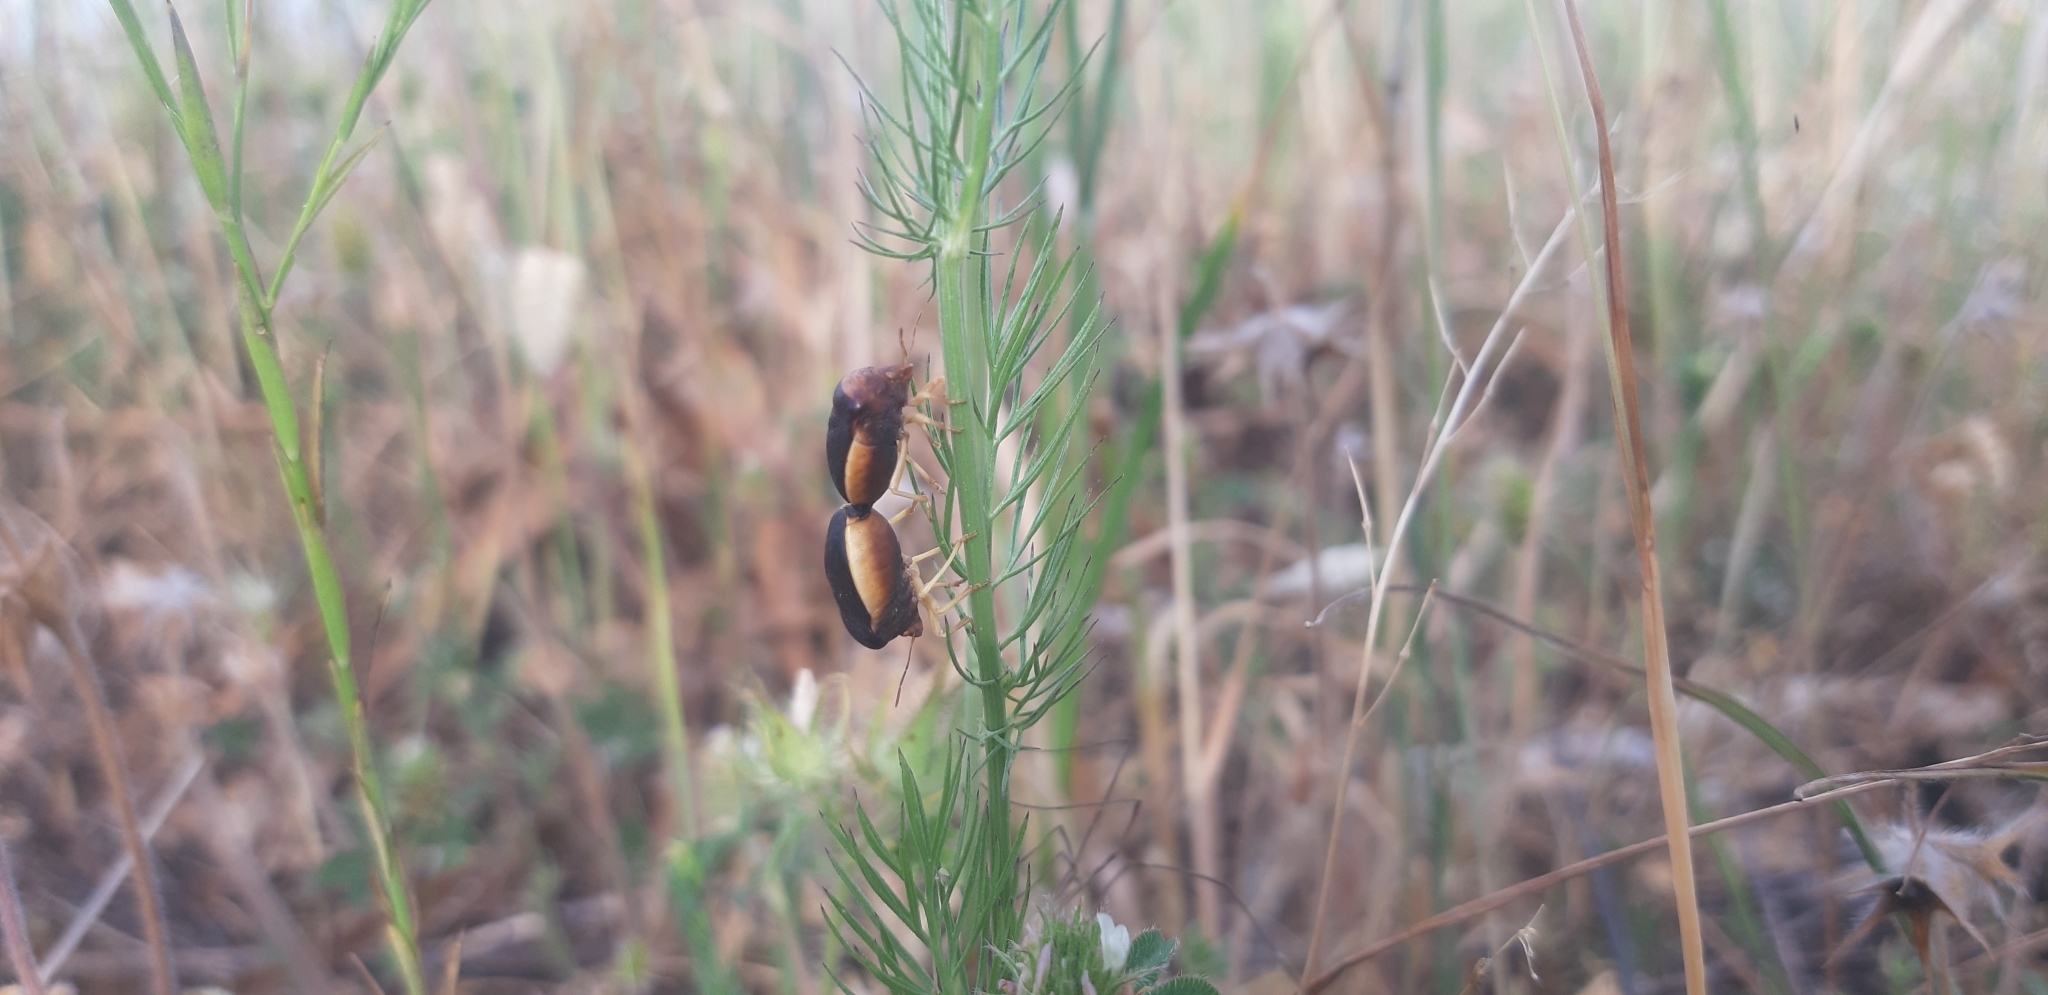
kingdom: Animalia
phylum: Arthropoda
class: Insecta
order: Hemiptera
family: Pentatomidae
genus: Ventocoris
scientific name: Ventocoris rusticus
